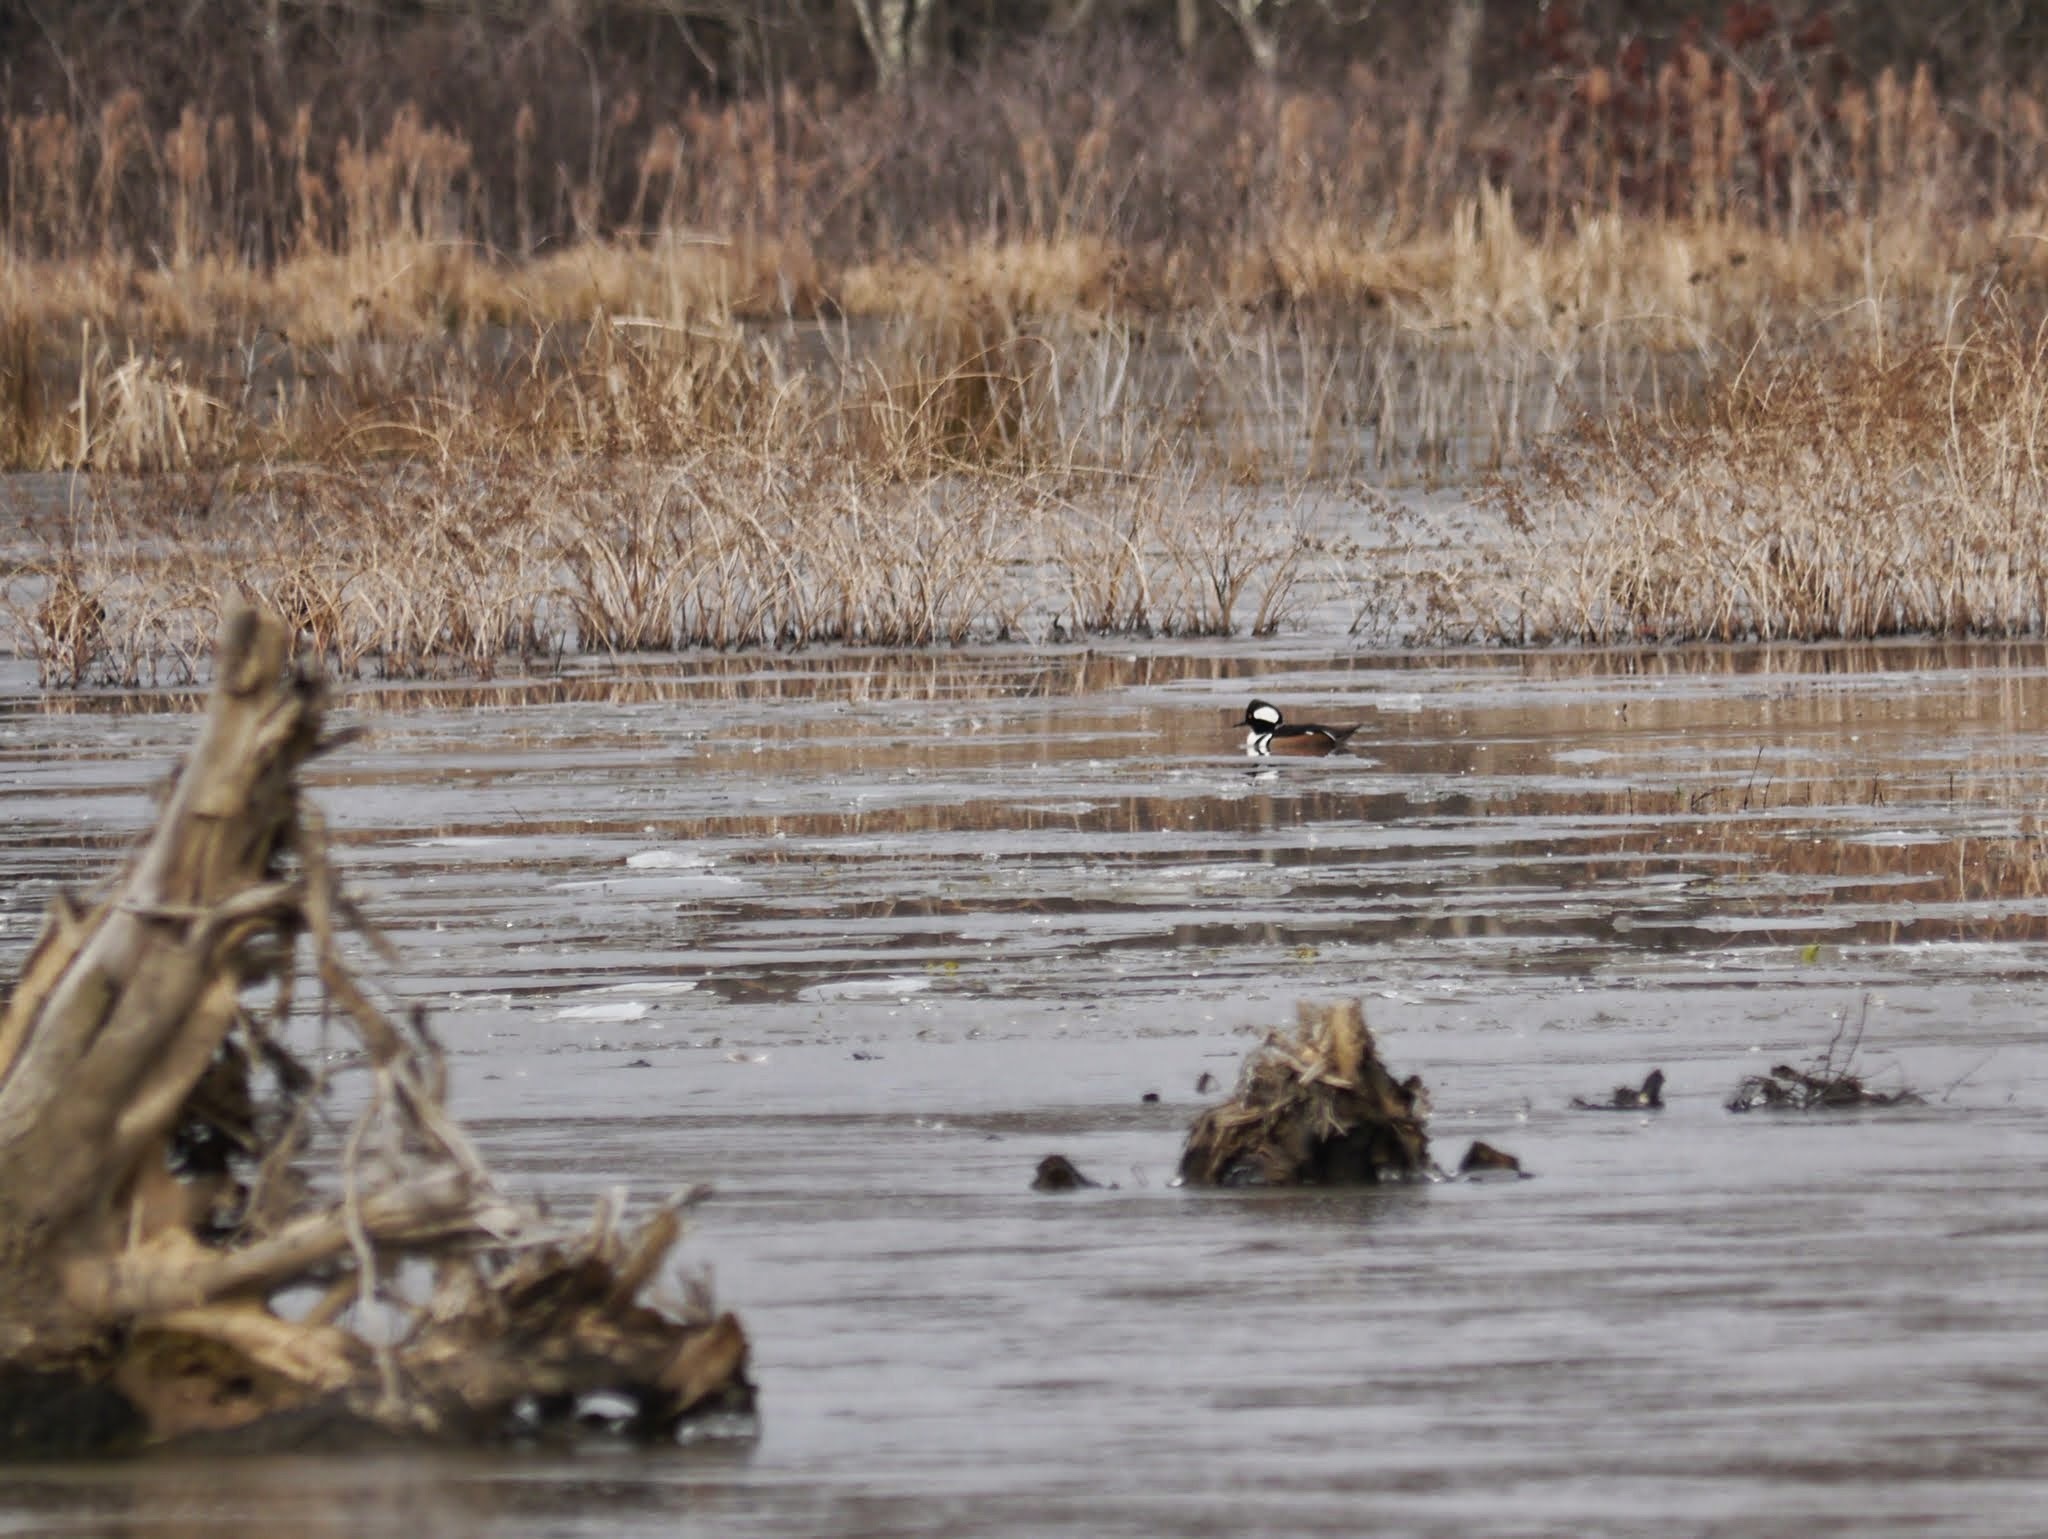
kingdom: Animalia
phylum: Chordata
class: Aves
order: Anseriformes
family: Anatidae
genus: Lophodytes
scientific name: Lophodytes cucullatus
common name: Hooded merganser
